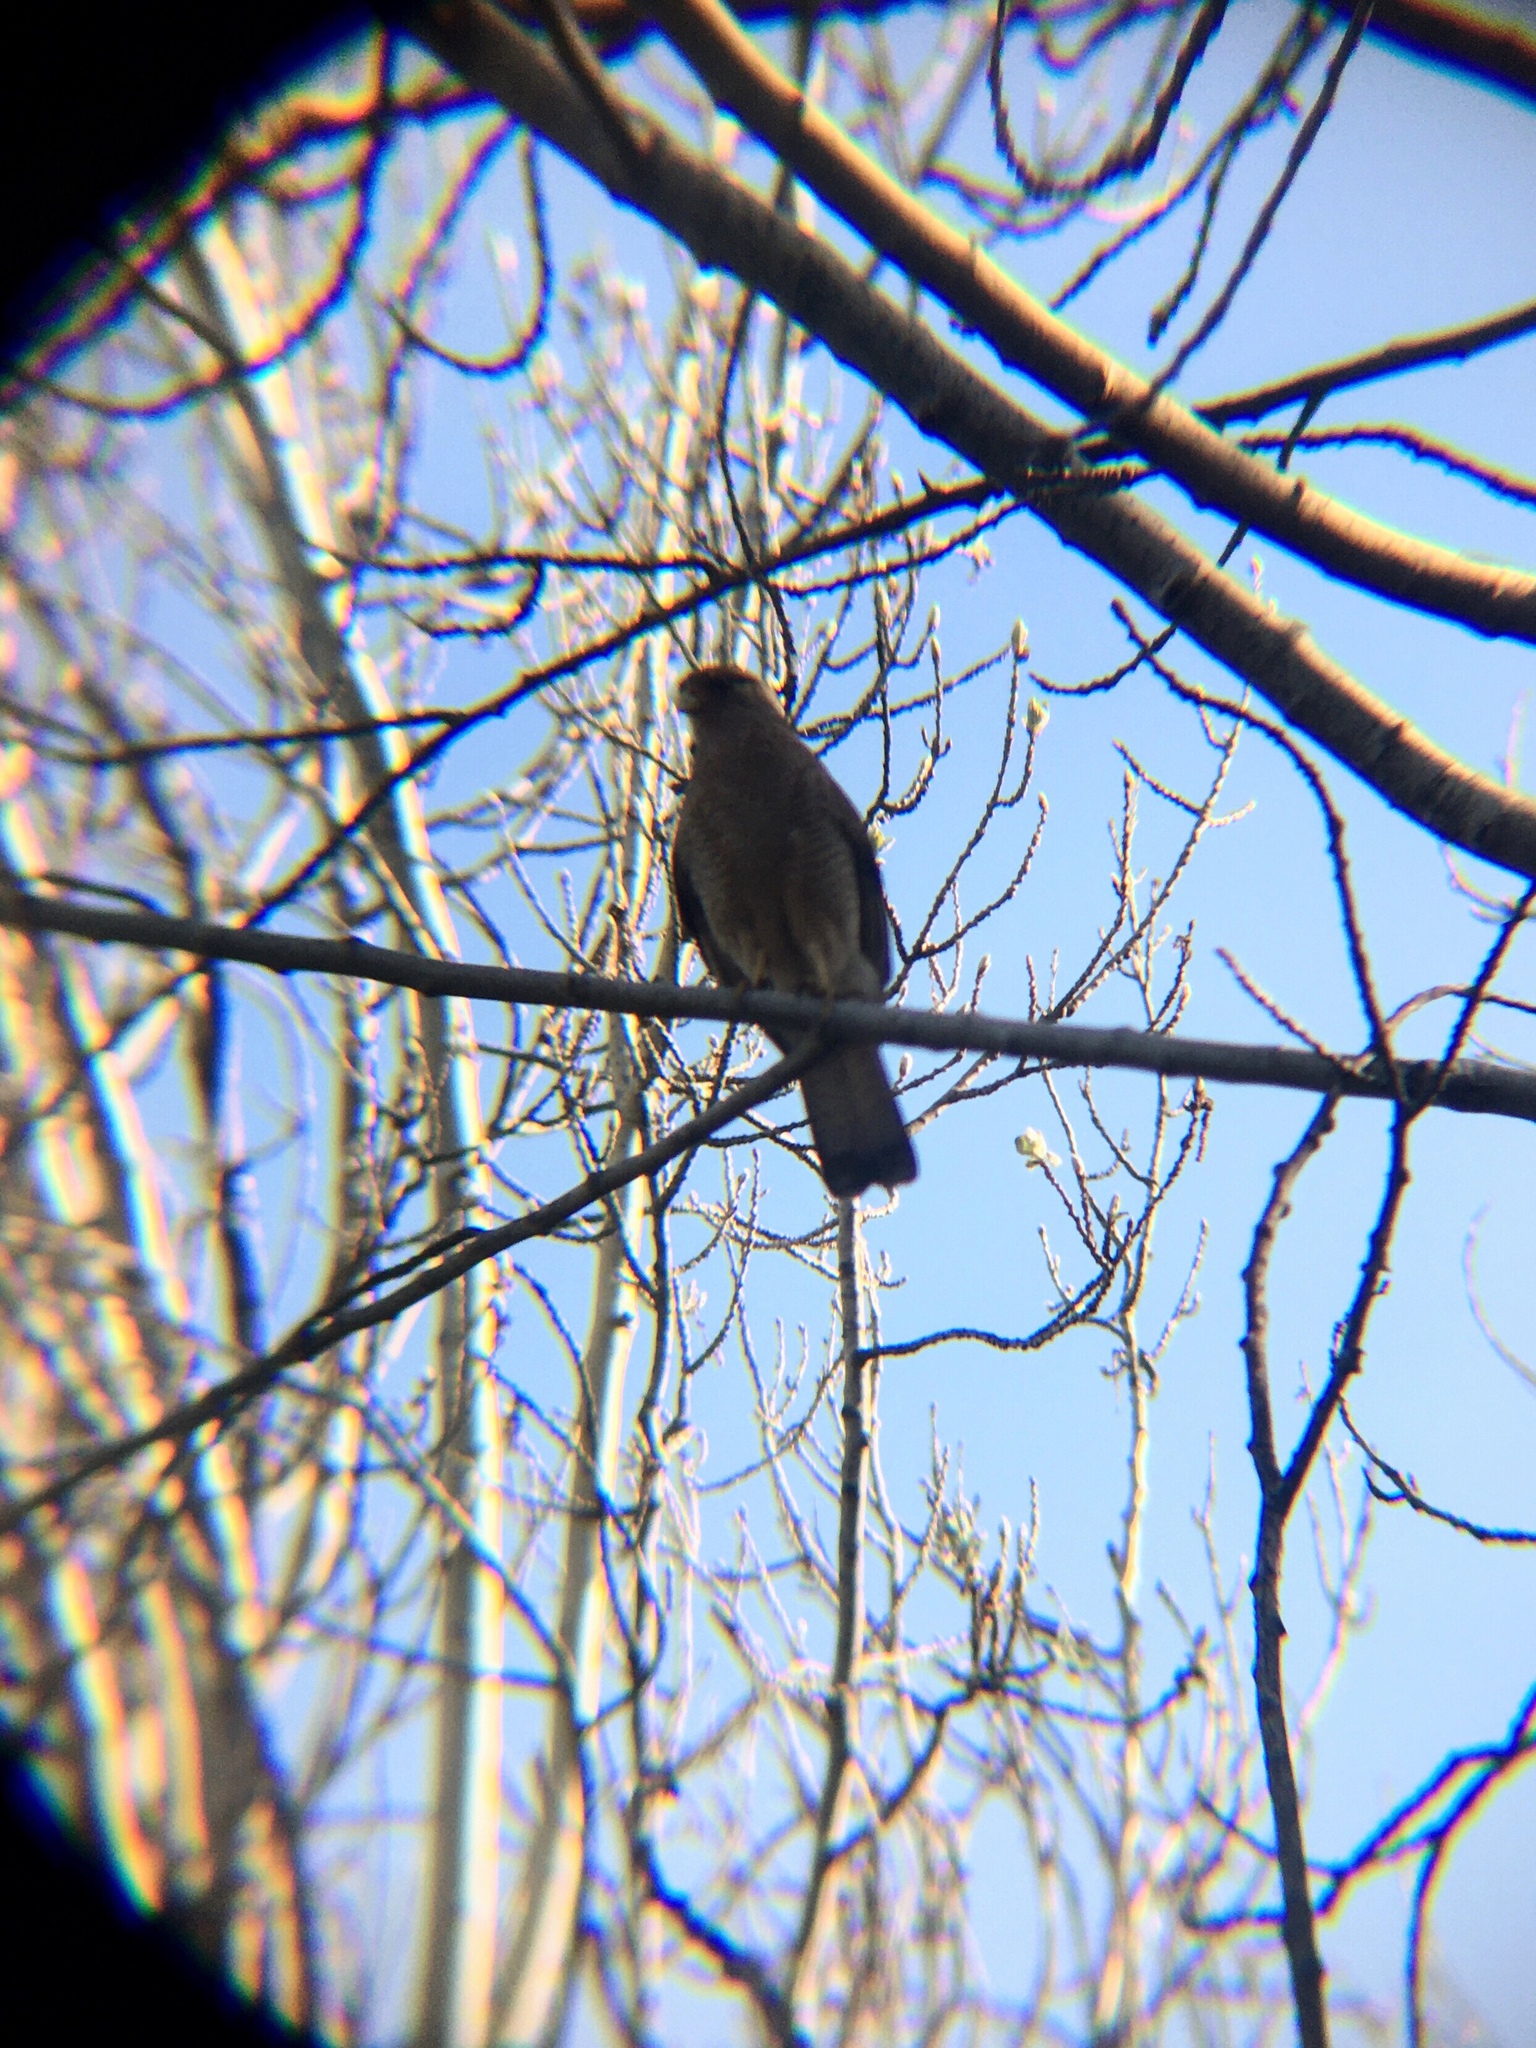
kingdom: Animalia
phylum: Chordata
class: Aves
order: Falconiformes
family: Falconidae
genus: Daptrius
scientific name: Daptrius
